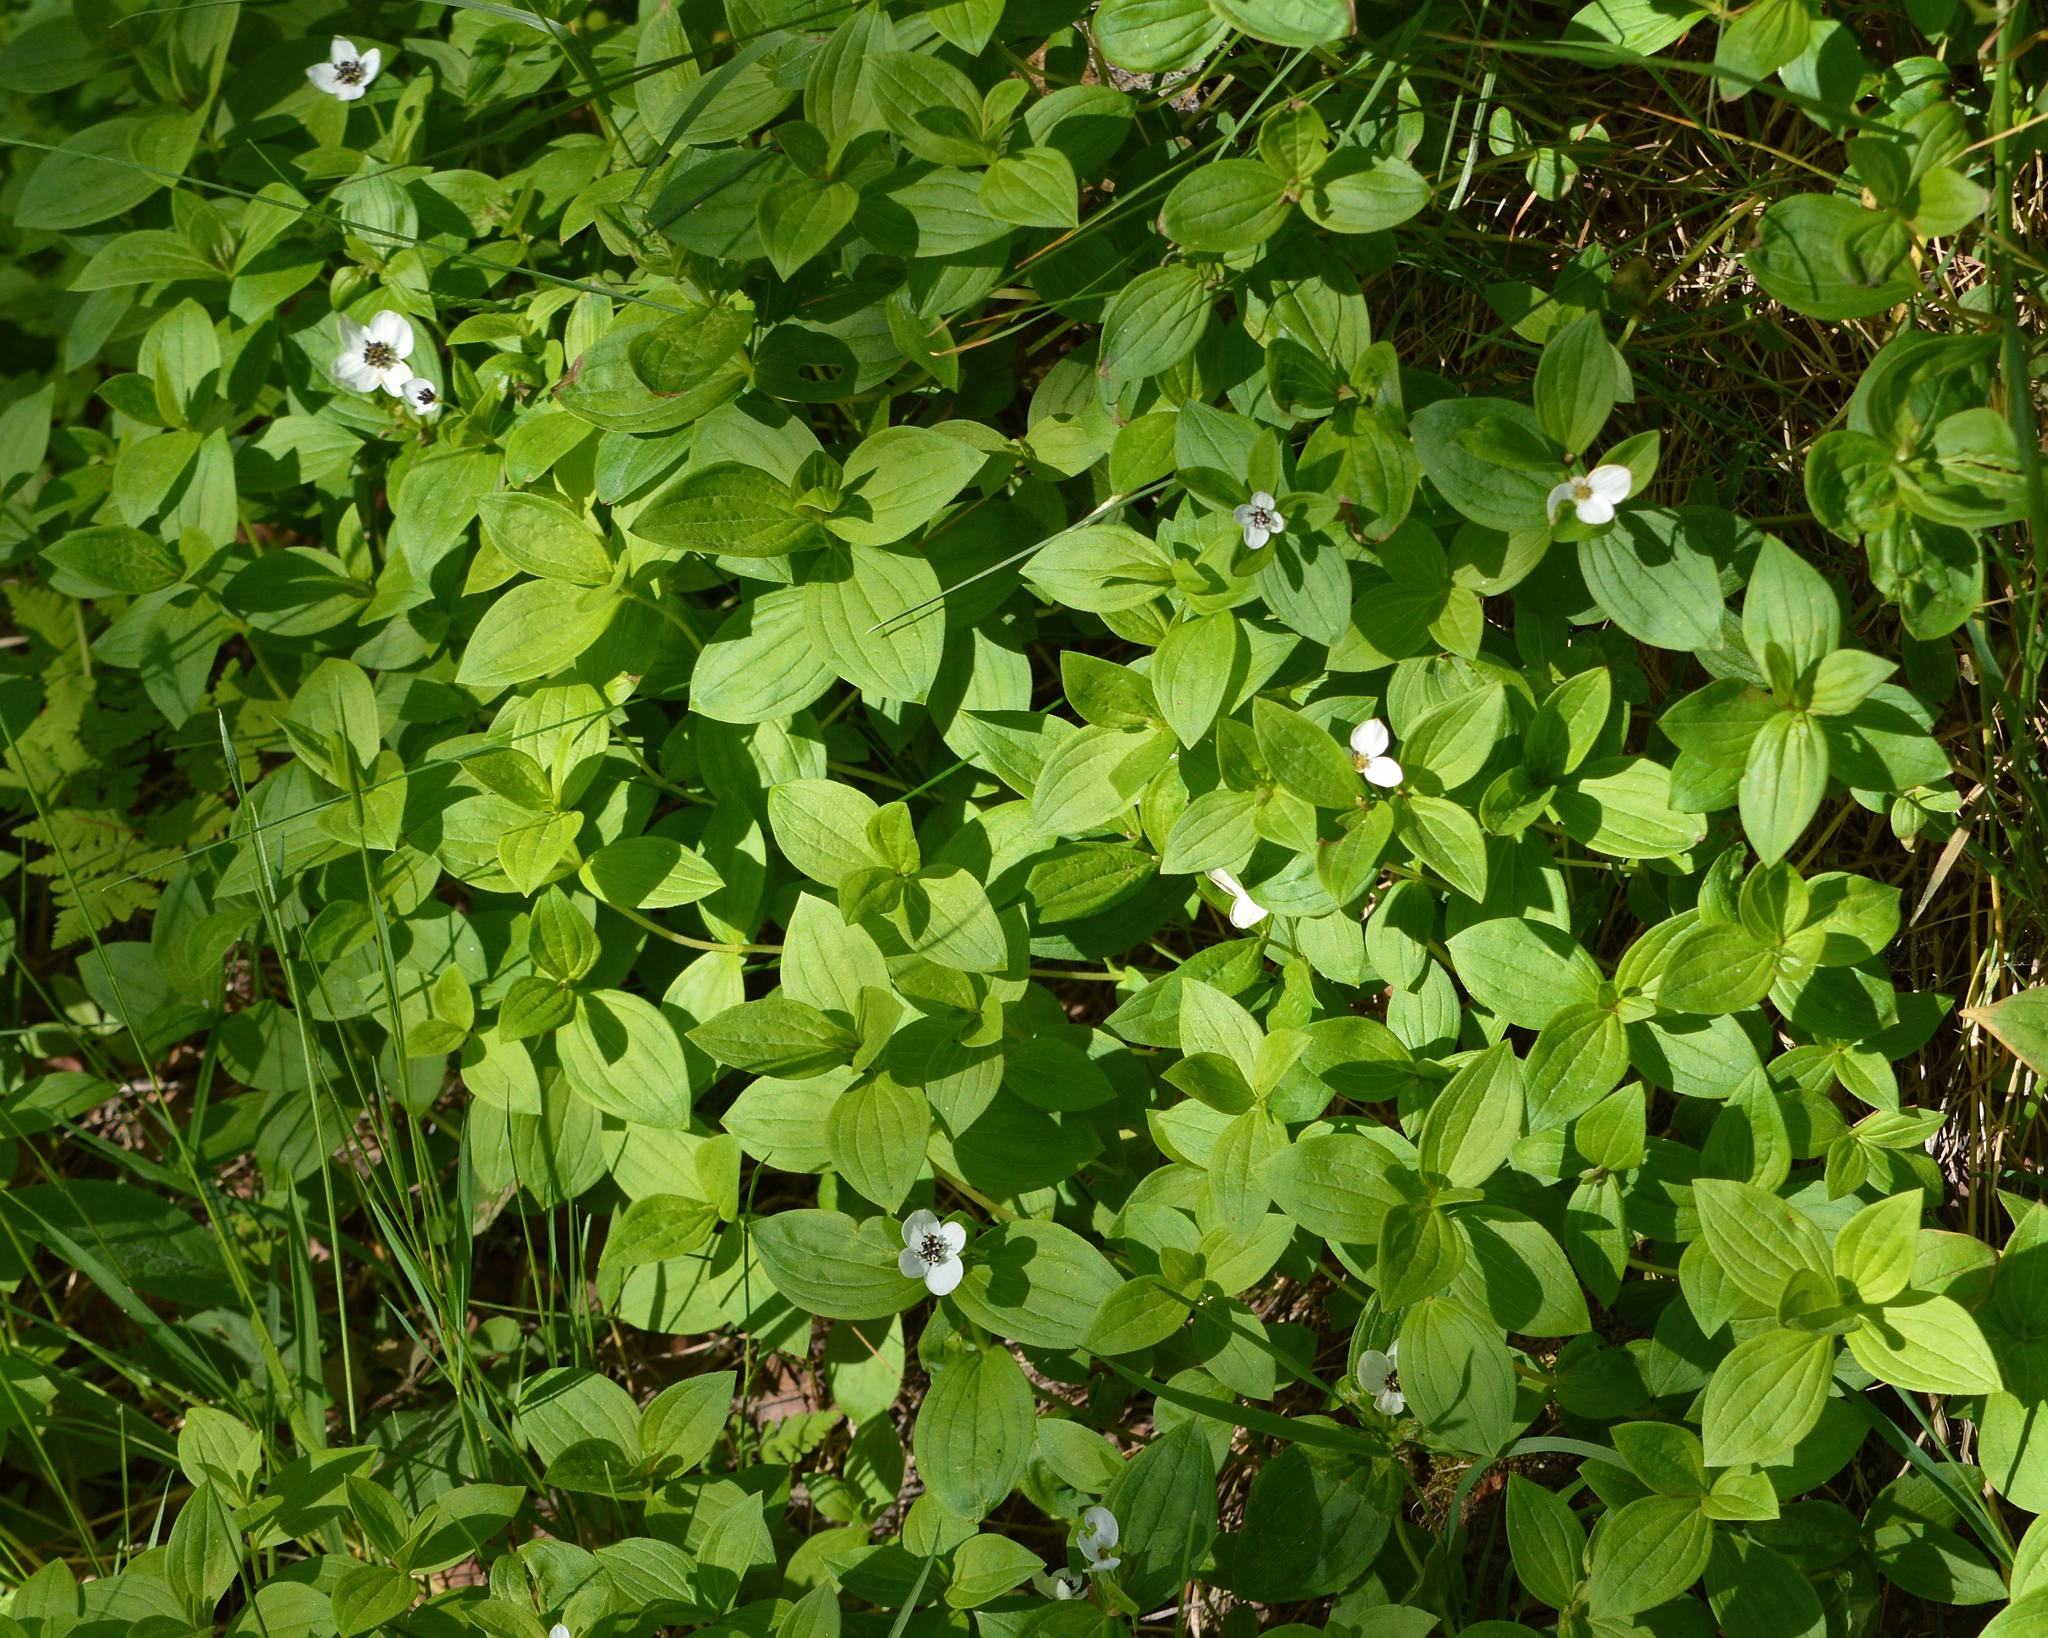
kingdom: Plantae
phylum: Tracheophyta
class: Magnoliopsida
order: Cornales
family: Cornaceae
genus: Cornus
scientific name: Cornus suecica
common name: Dwarf cornel
